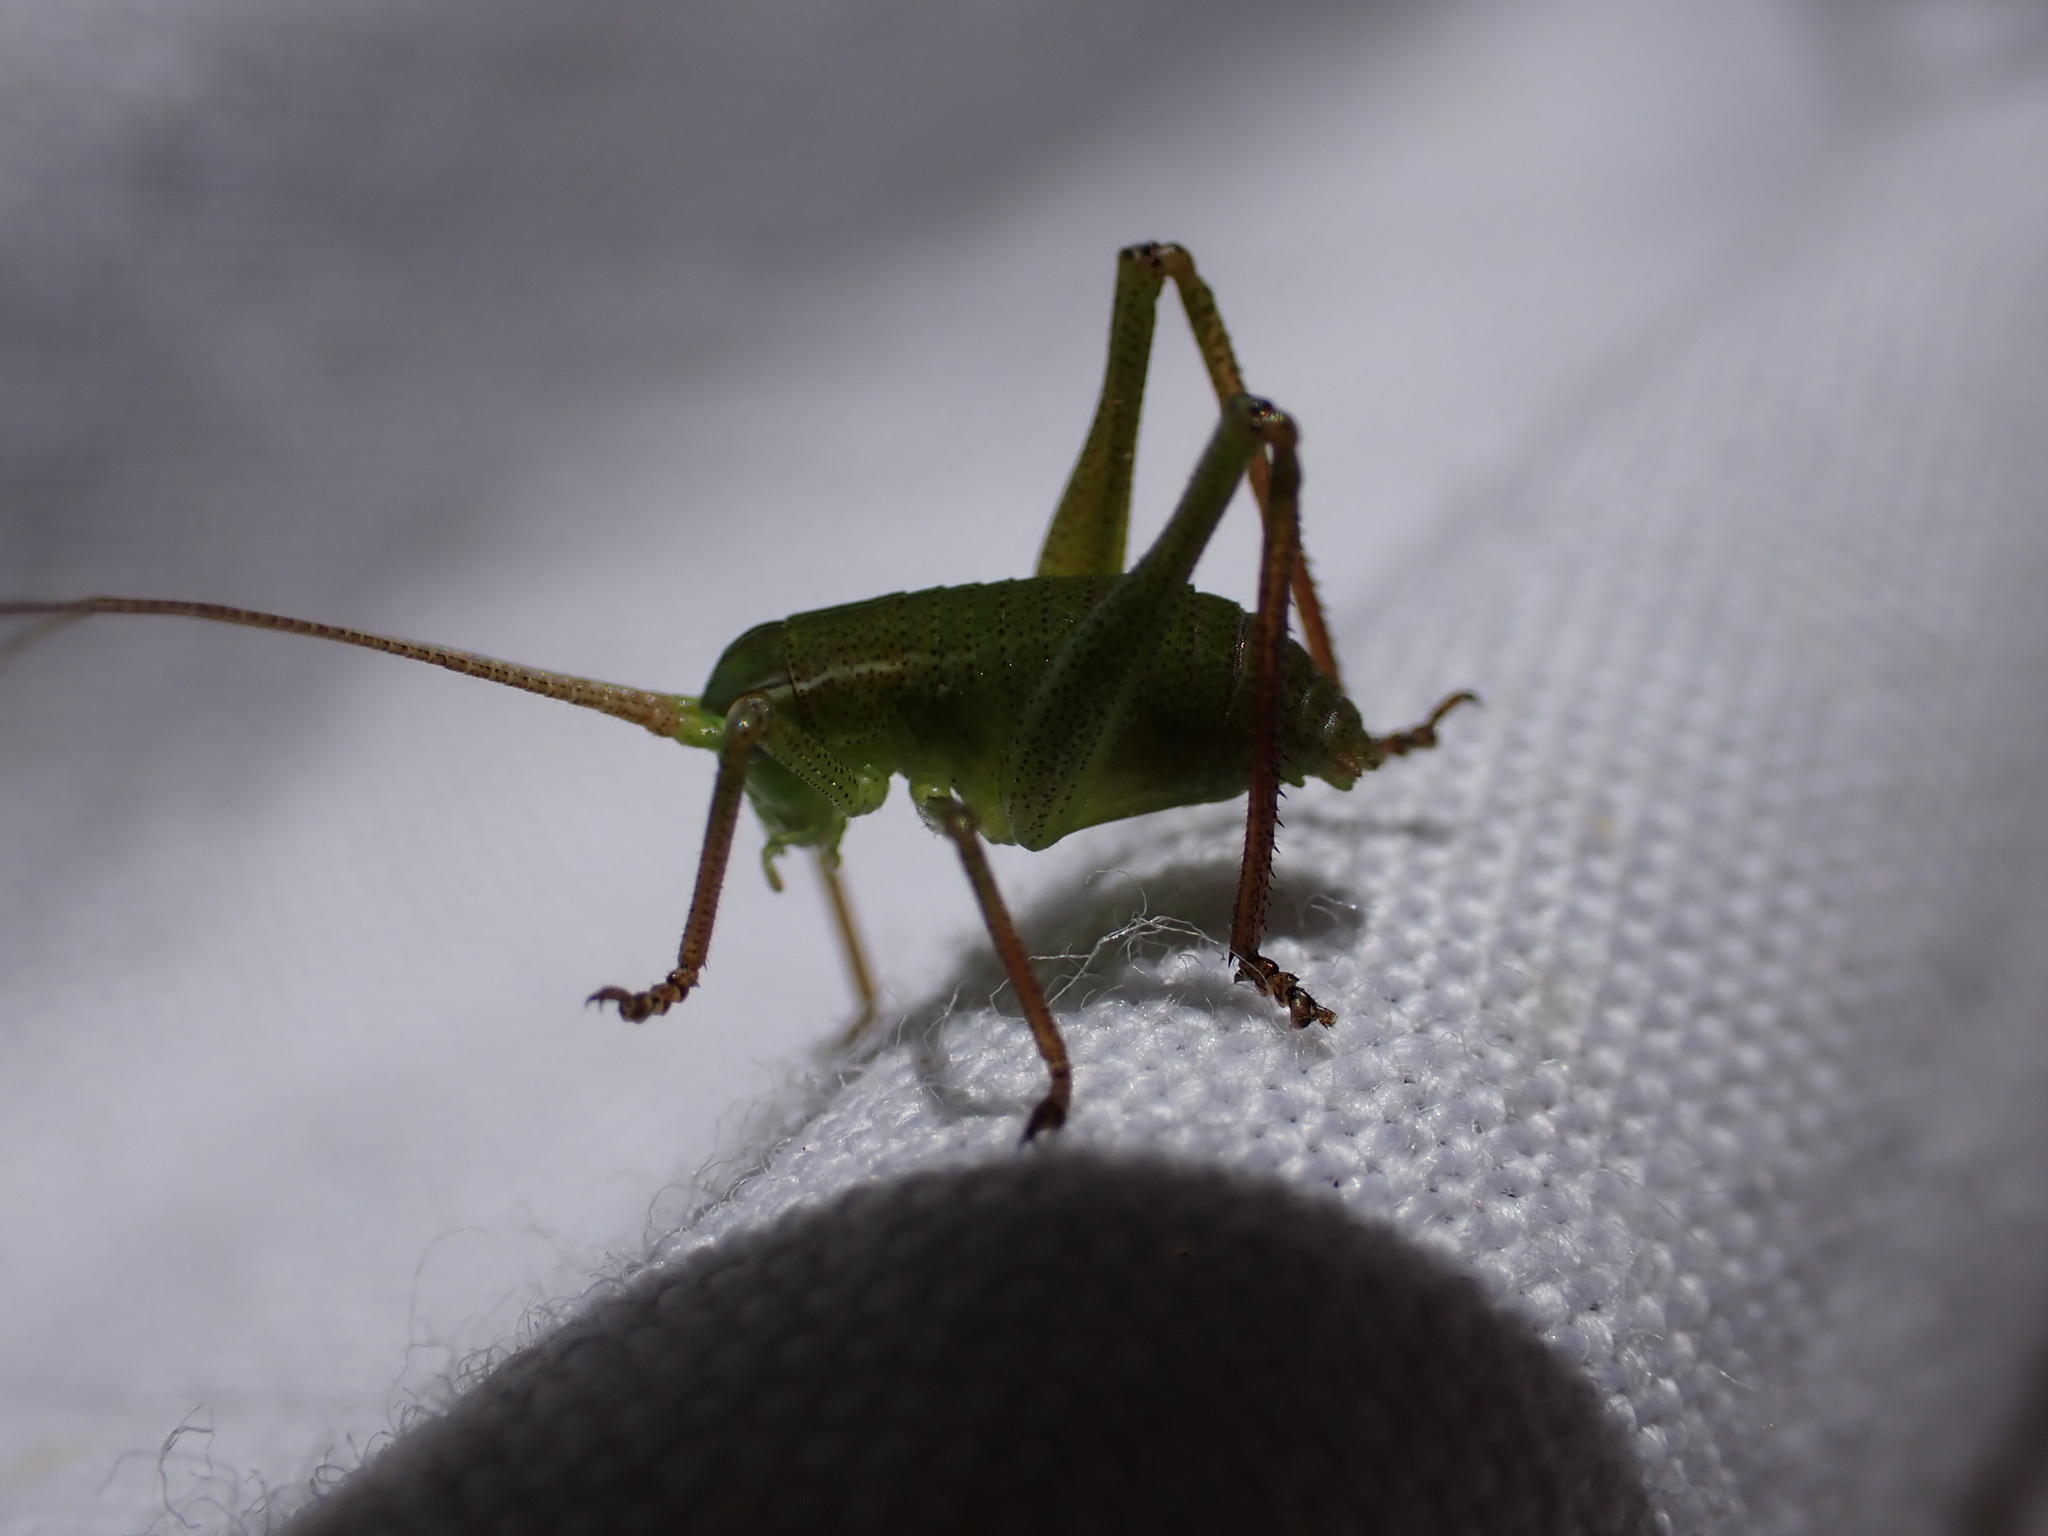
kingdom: Animalia
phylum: Arthropoda
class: Insecta
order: Orthoptera
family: Tettigoniidae
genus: Barbitistes
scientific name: Barbitistes fischeri
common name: Southern saw-tailed bush-cricket
